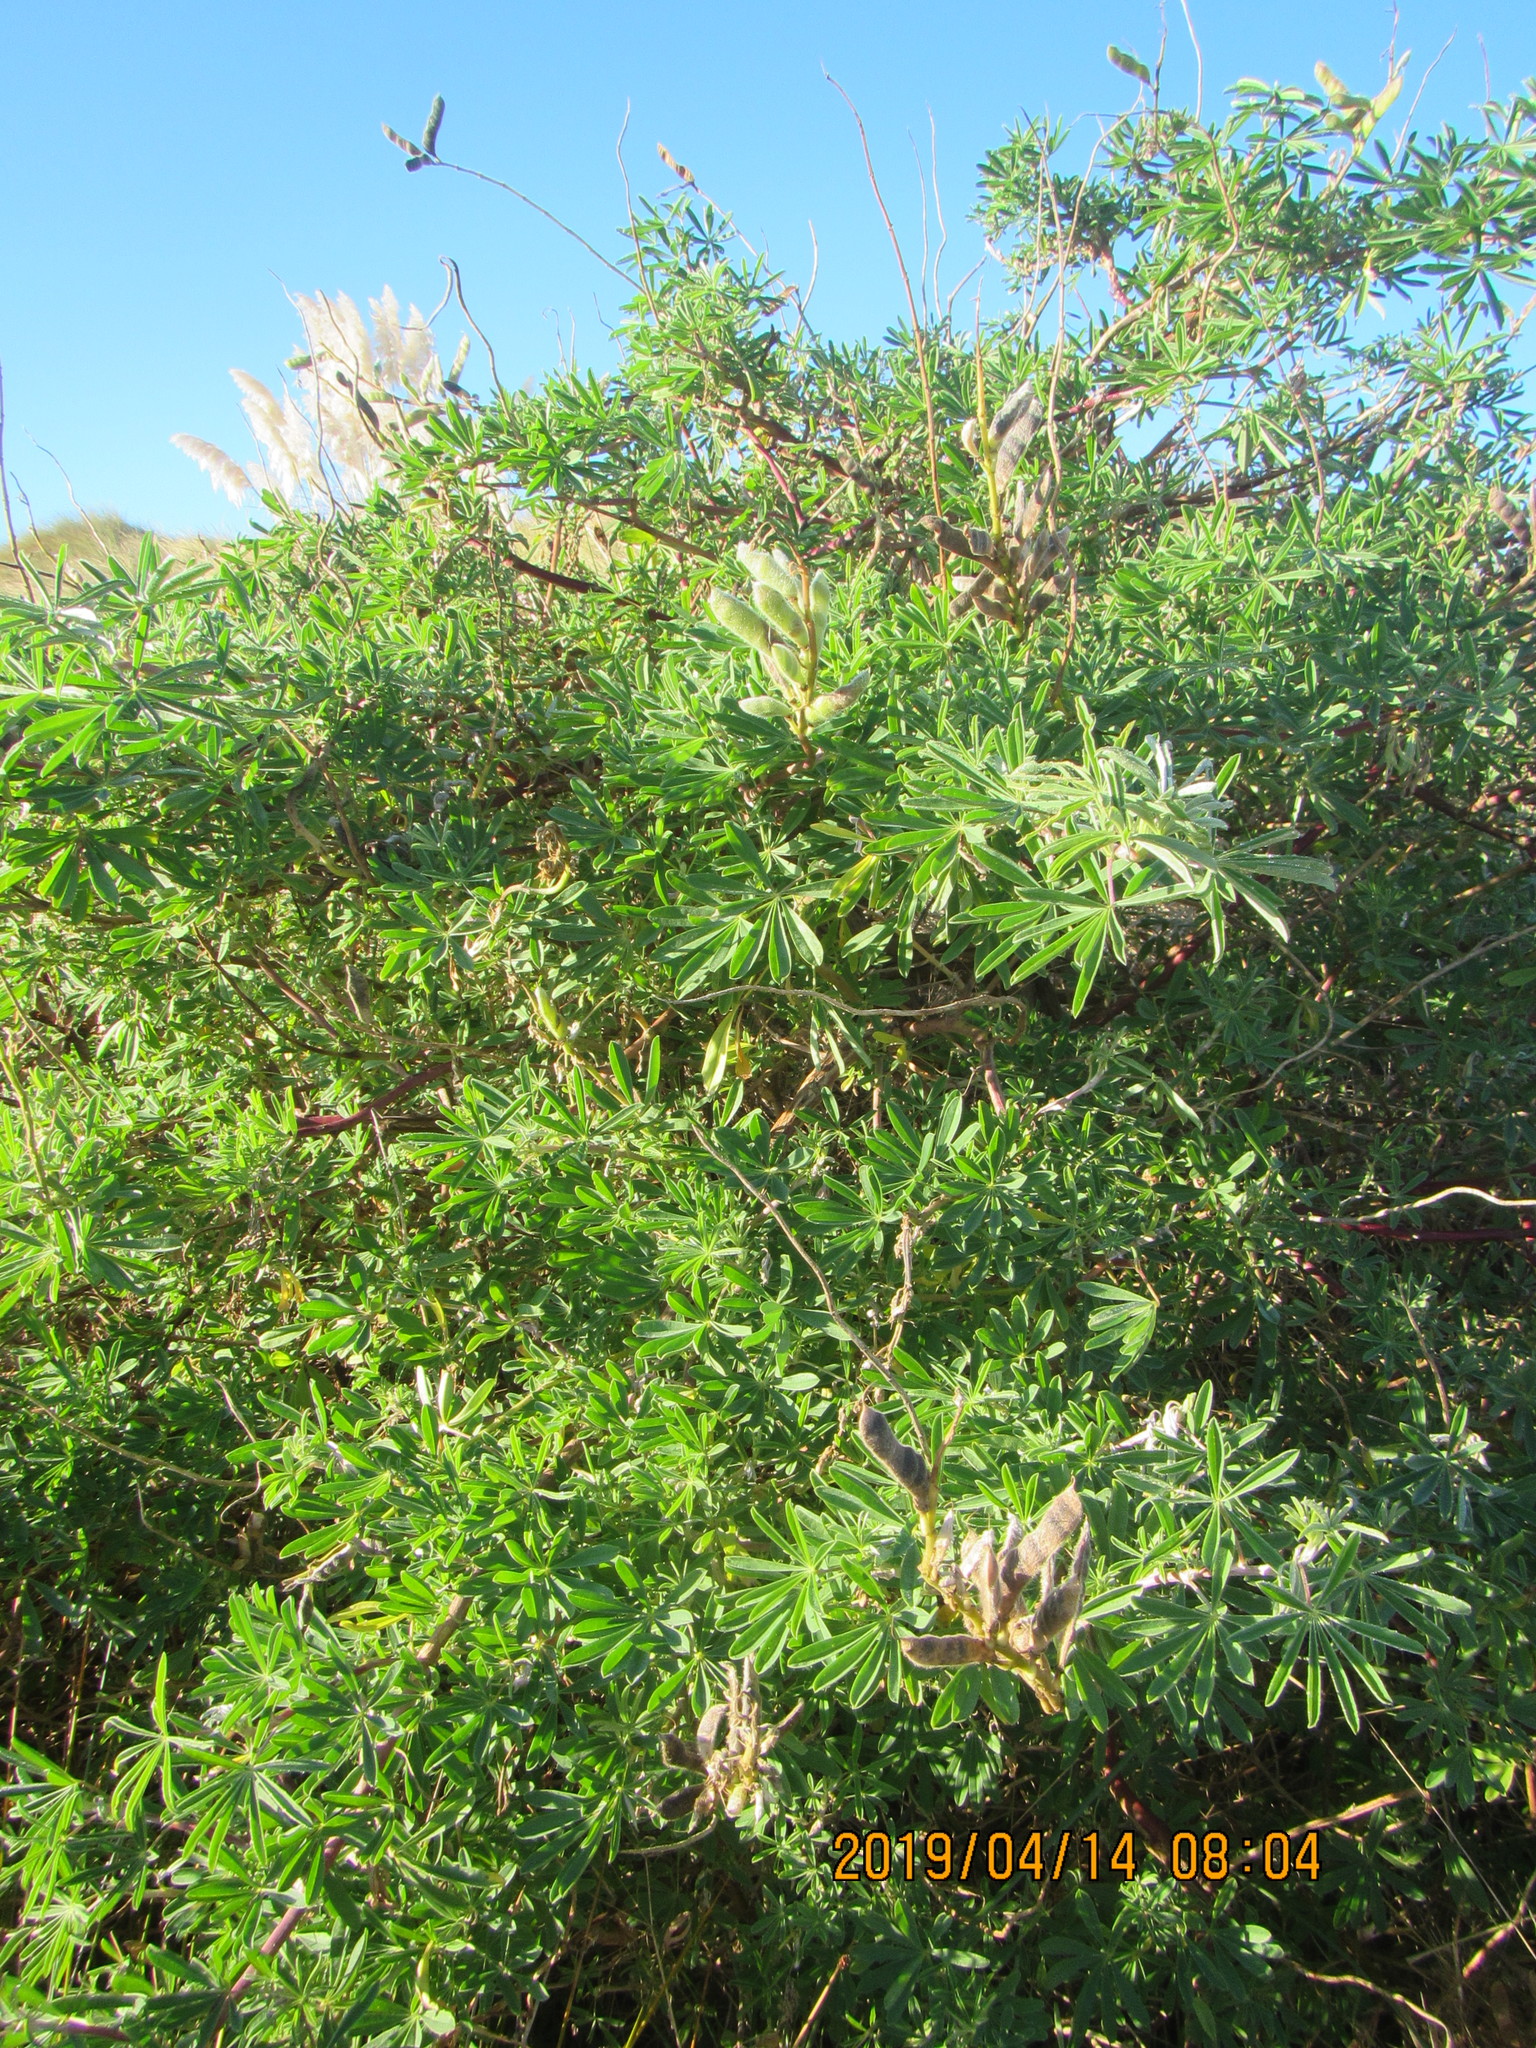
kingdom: Plantae
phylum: Tracheophyta
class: Magnoliopsida
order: Fabales
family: Fabaceae
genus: Lupinus
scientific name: Lupinus arboreus
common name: Yellow bush lupine
